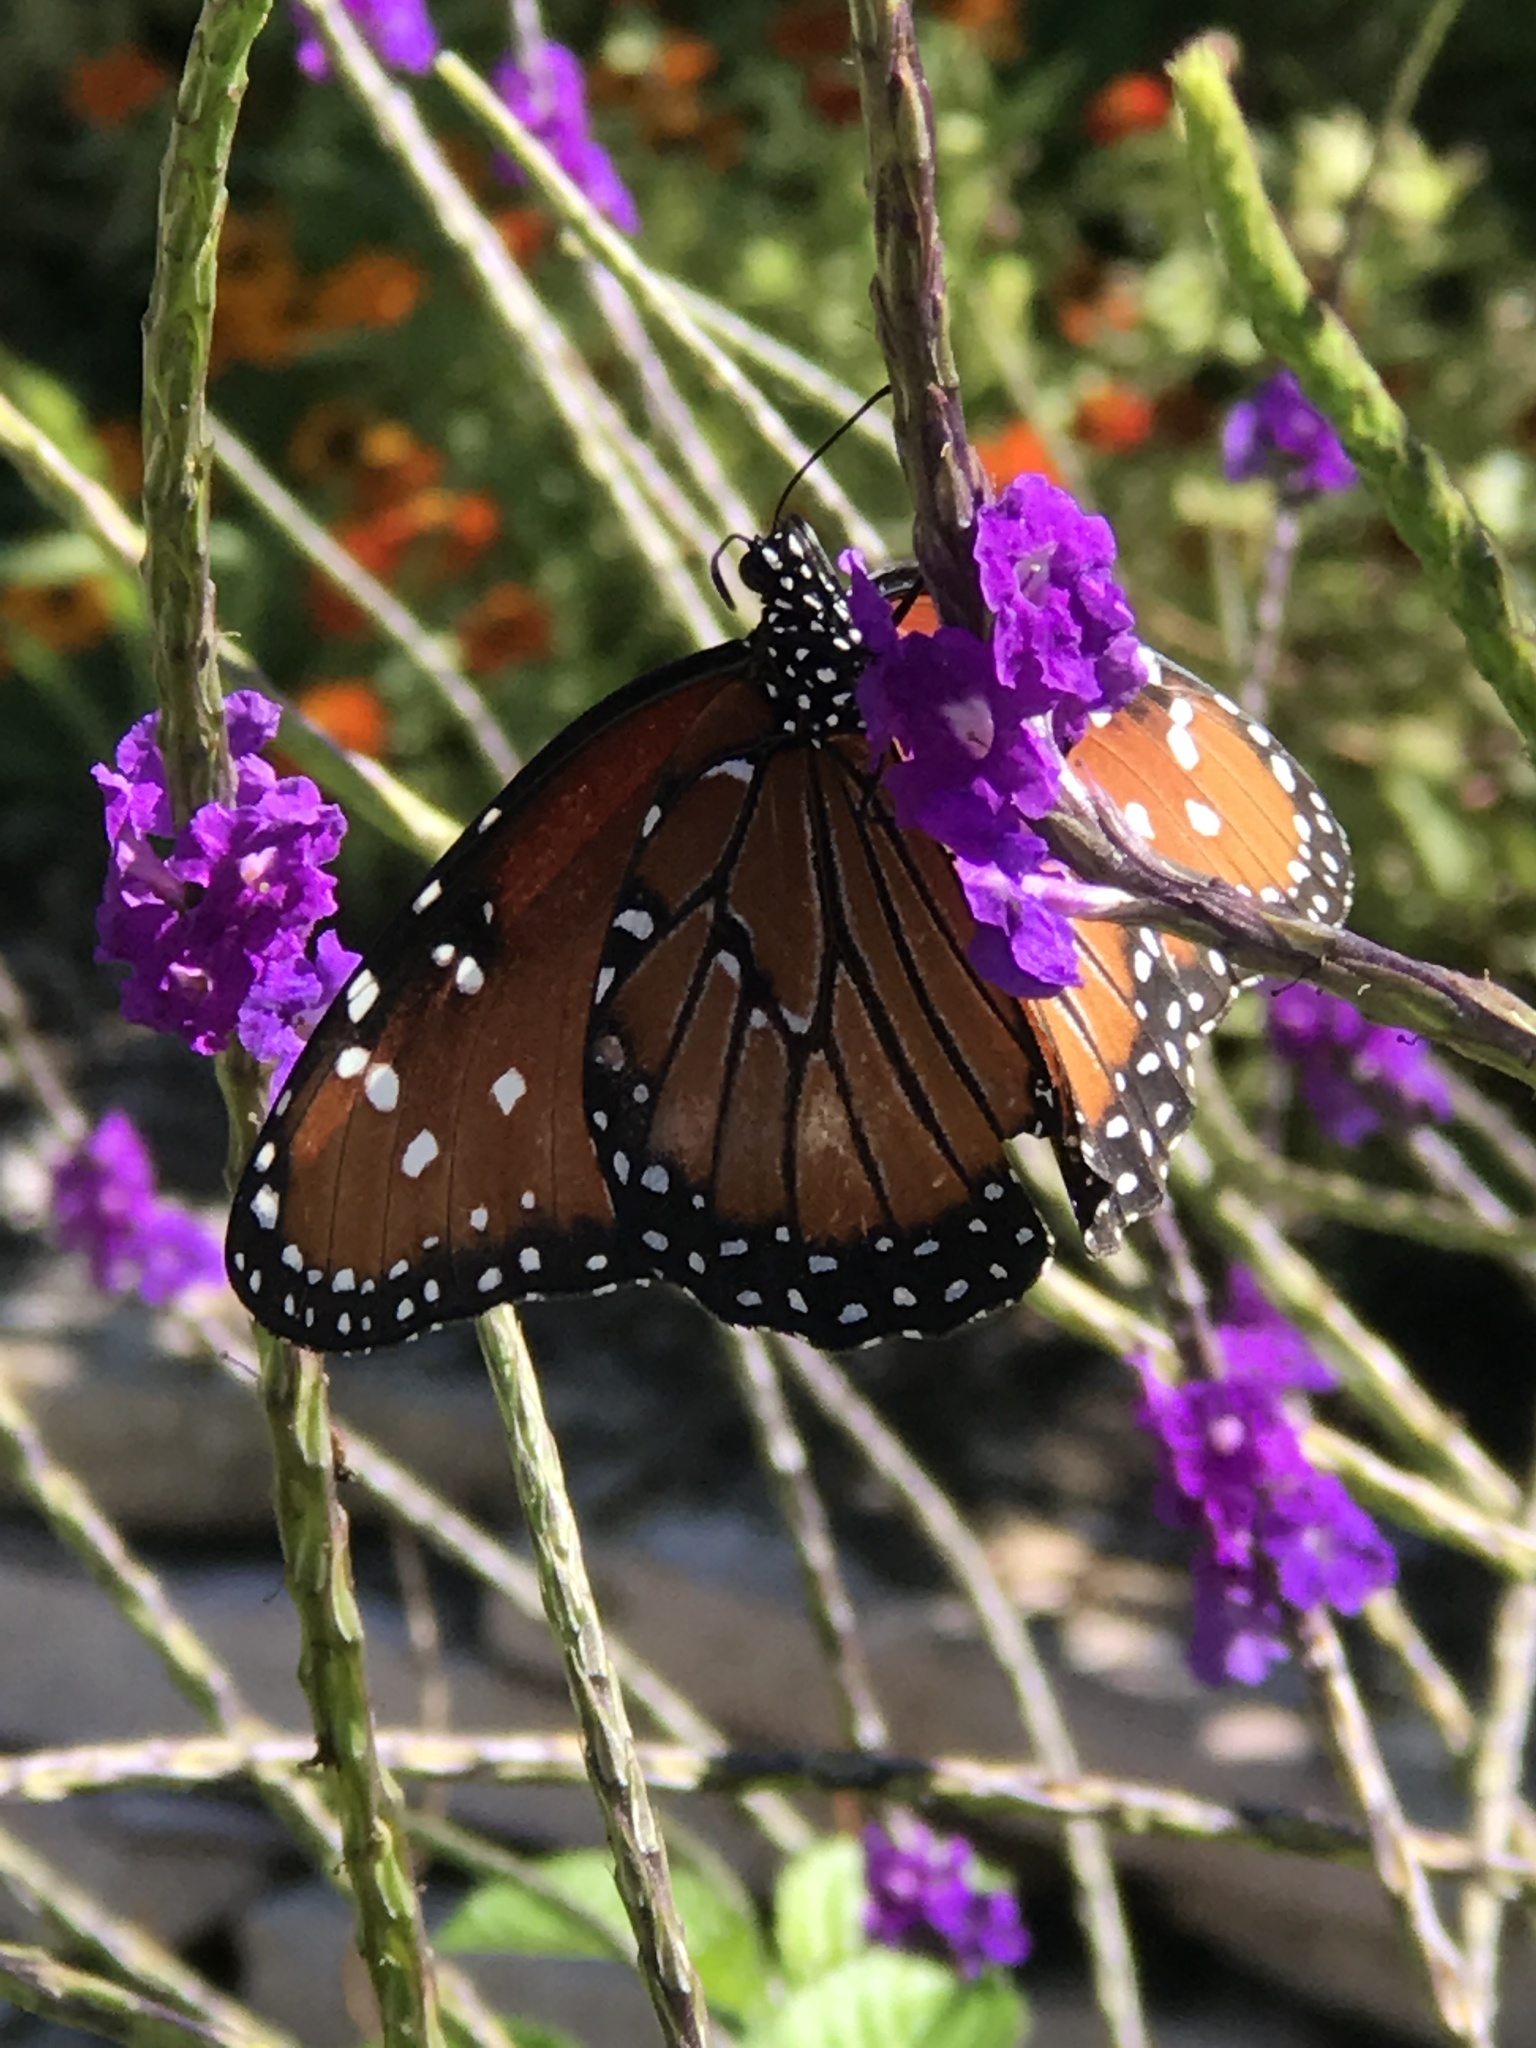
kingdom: Animalia
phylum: Arthropoda
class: Insecta
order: Lepidoptera
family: Nymphalidae
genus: Danaus
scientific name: Danaus gilippus
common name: Queen
